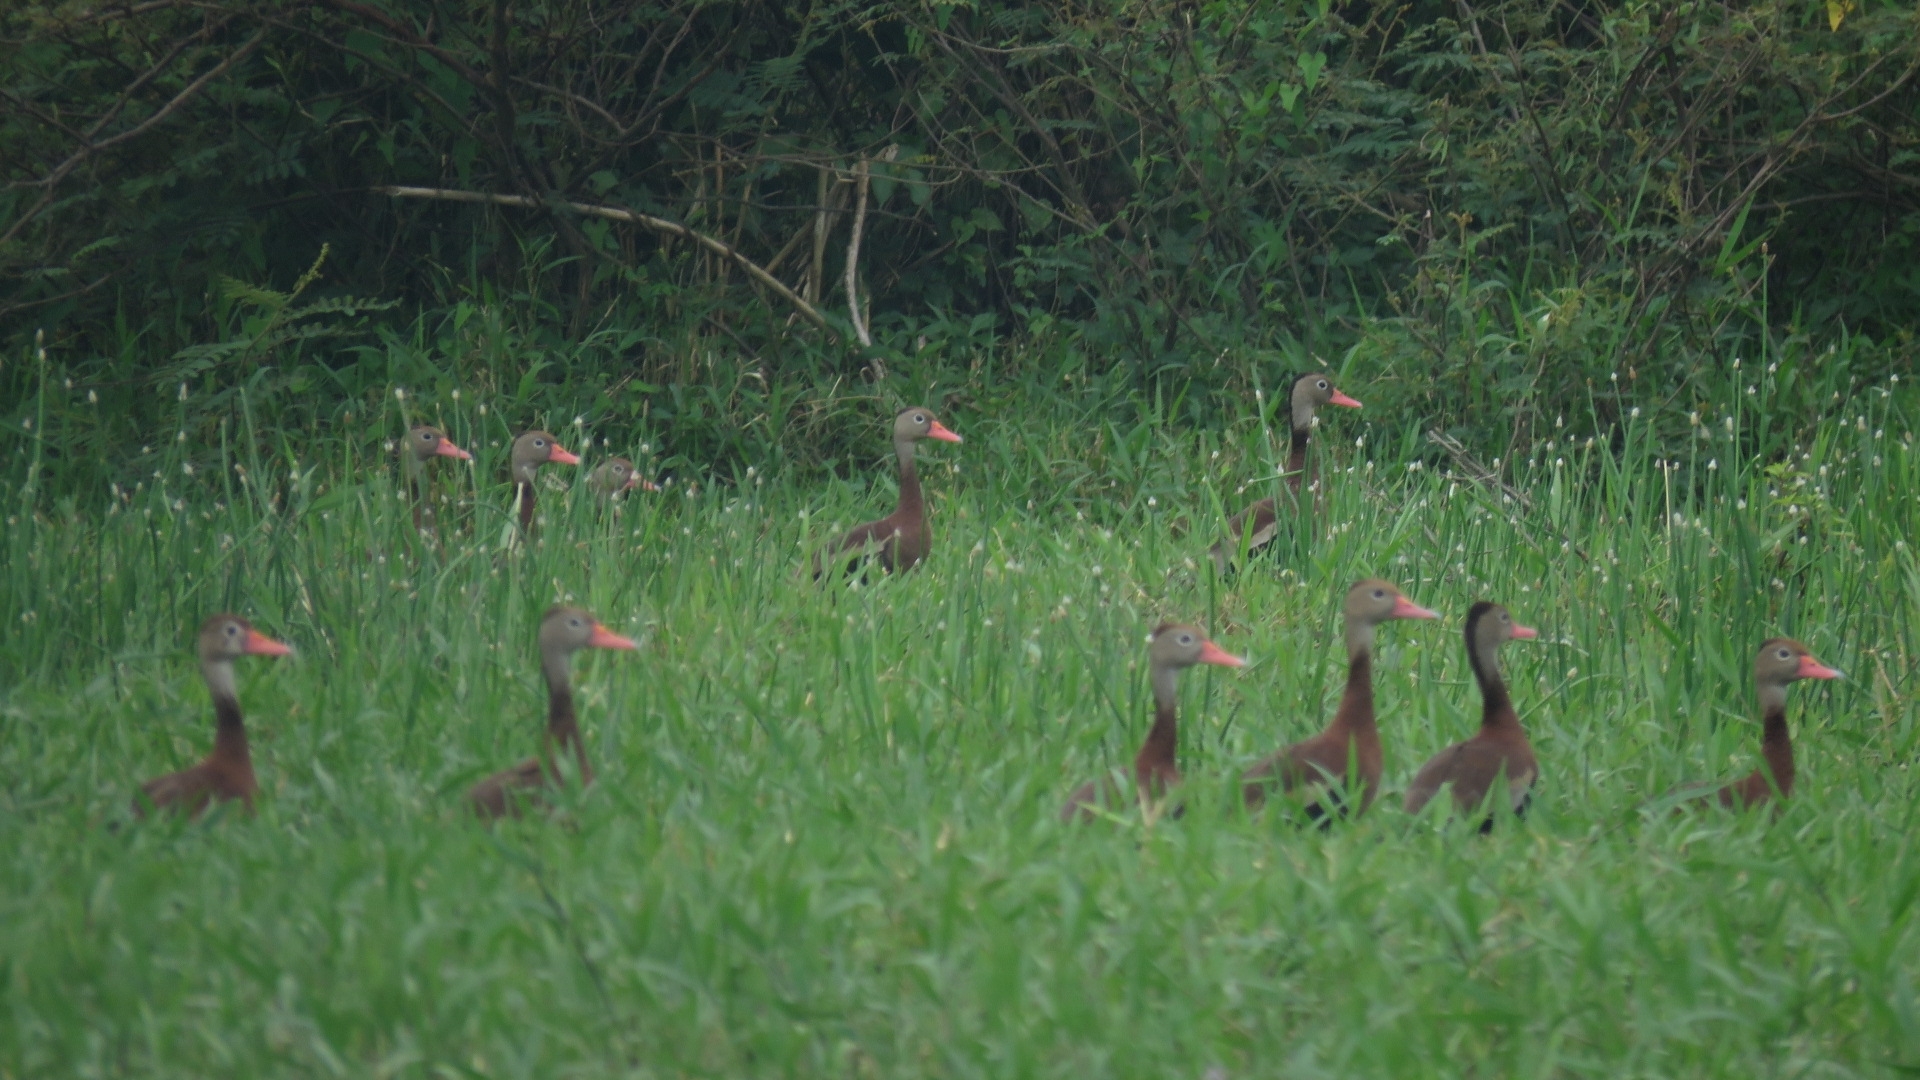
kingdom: Animalia
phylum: Chordata
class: Aves
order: Anseriformes
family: Anatidae
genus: Dendrocygna
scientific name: Dendrocygna autumnalis
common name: Black-bellied whistling duck
